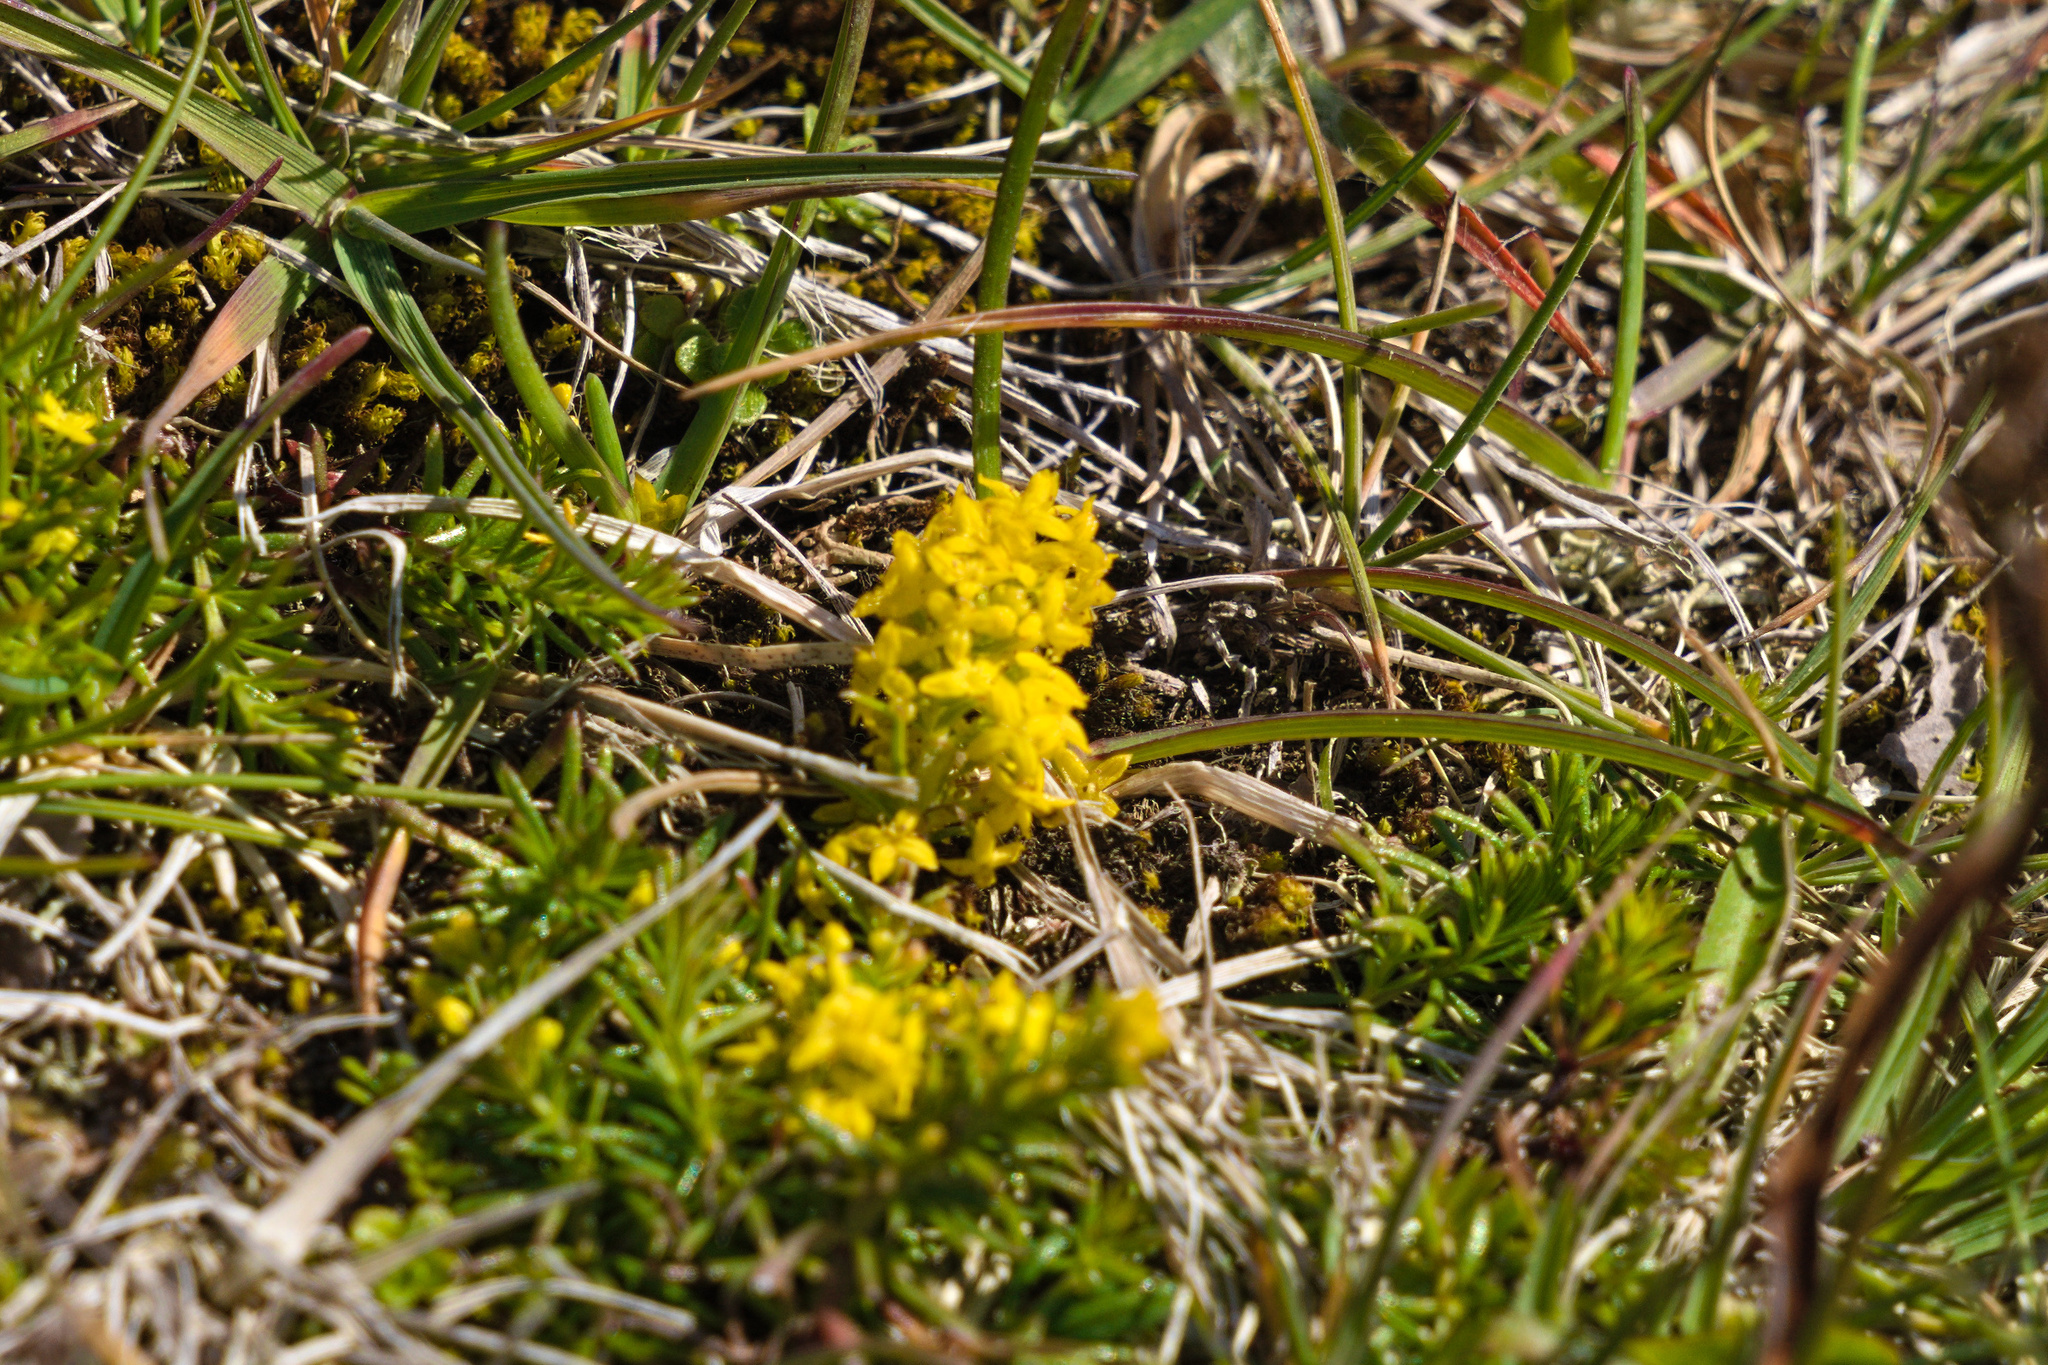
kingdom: Plantae
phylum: Tracheophyta
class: Magnoliopsida
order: Gentianales
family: Rubiaceae
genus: Galium
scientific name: Galium verum
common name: Lady's bedstraw
